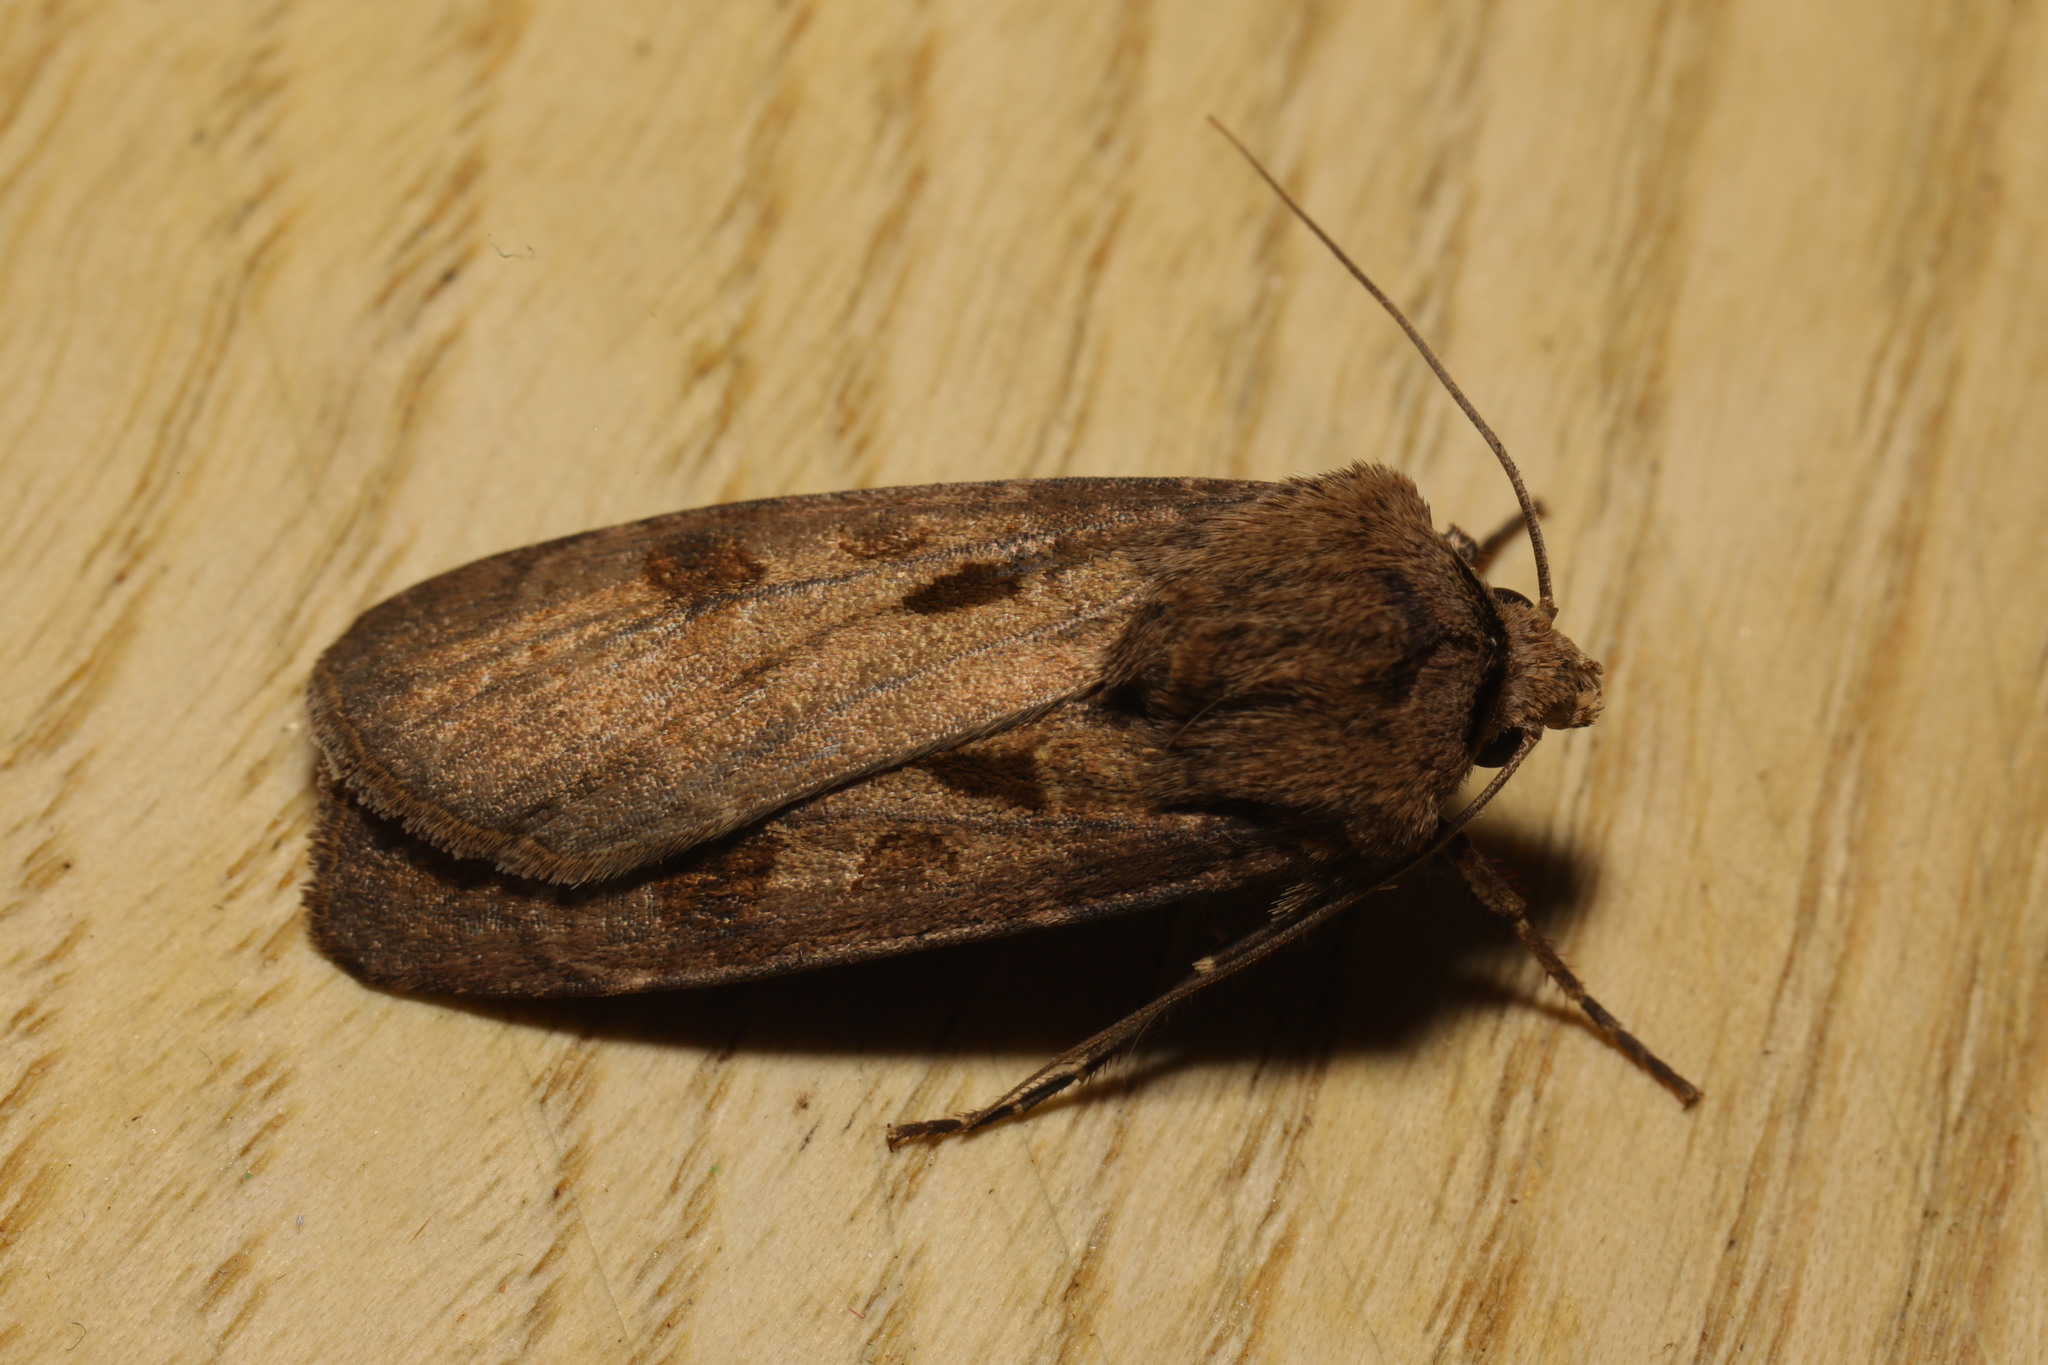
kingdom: Animalia
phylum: Arthropoda
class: Insecta
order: Lepidoptera
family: Noctuidae
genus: Agrotis
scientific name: Agrotis exclamationis
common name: Heart and dart
